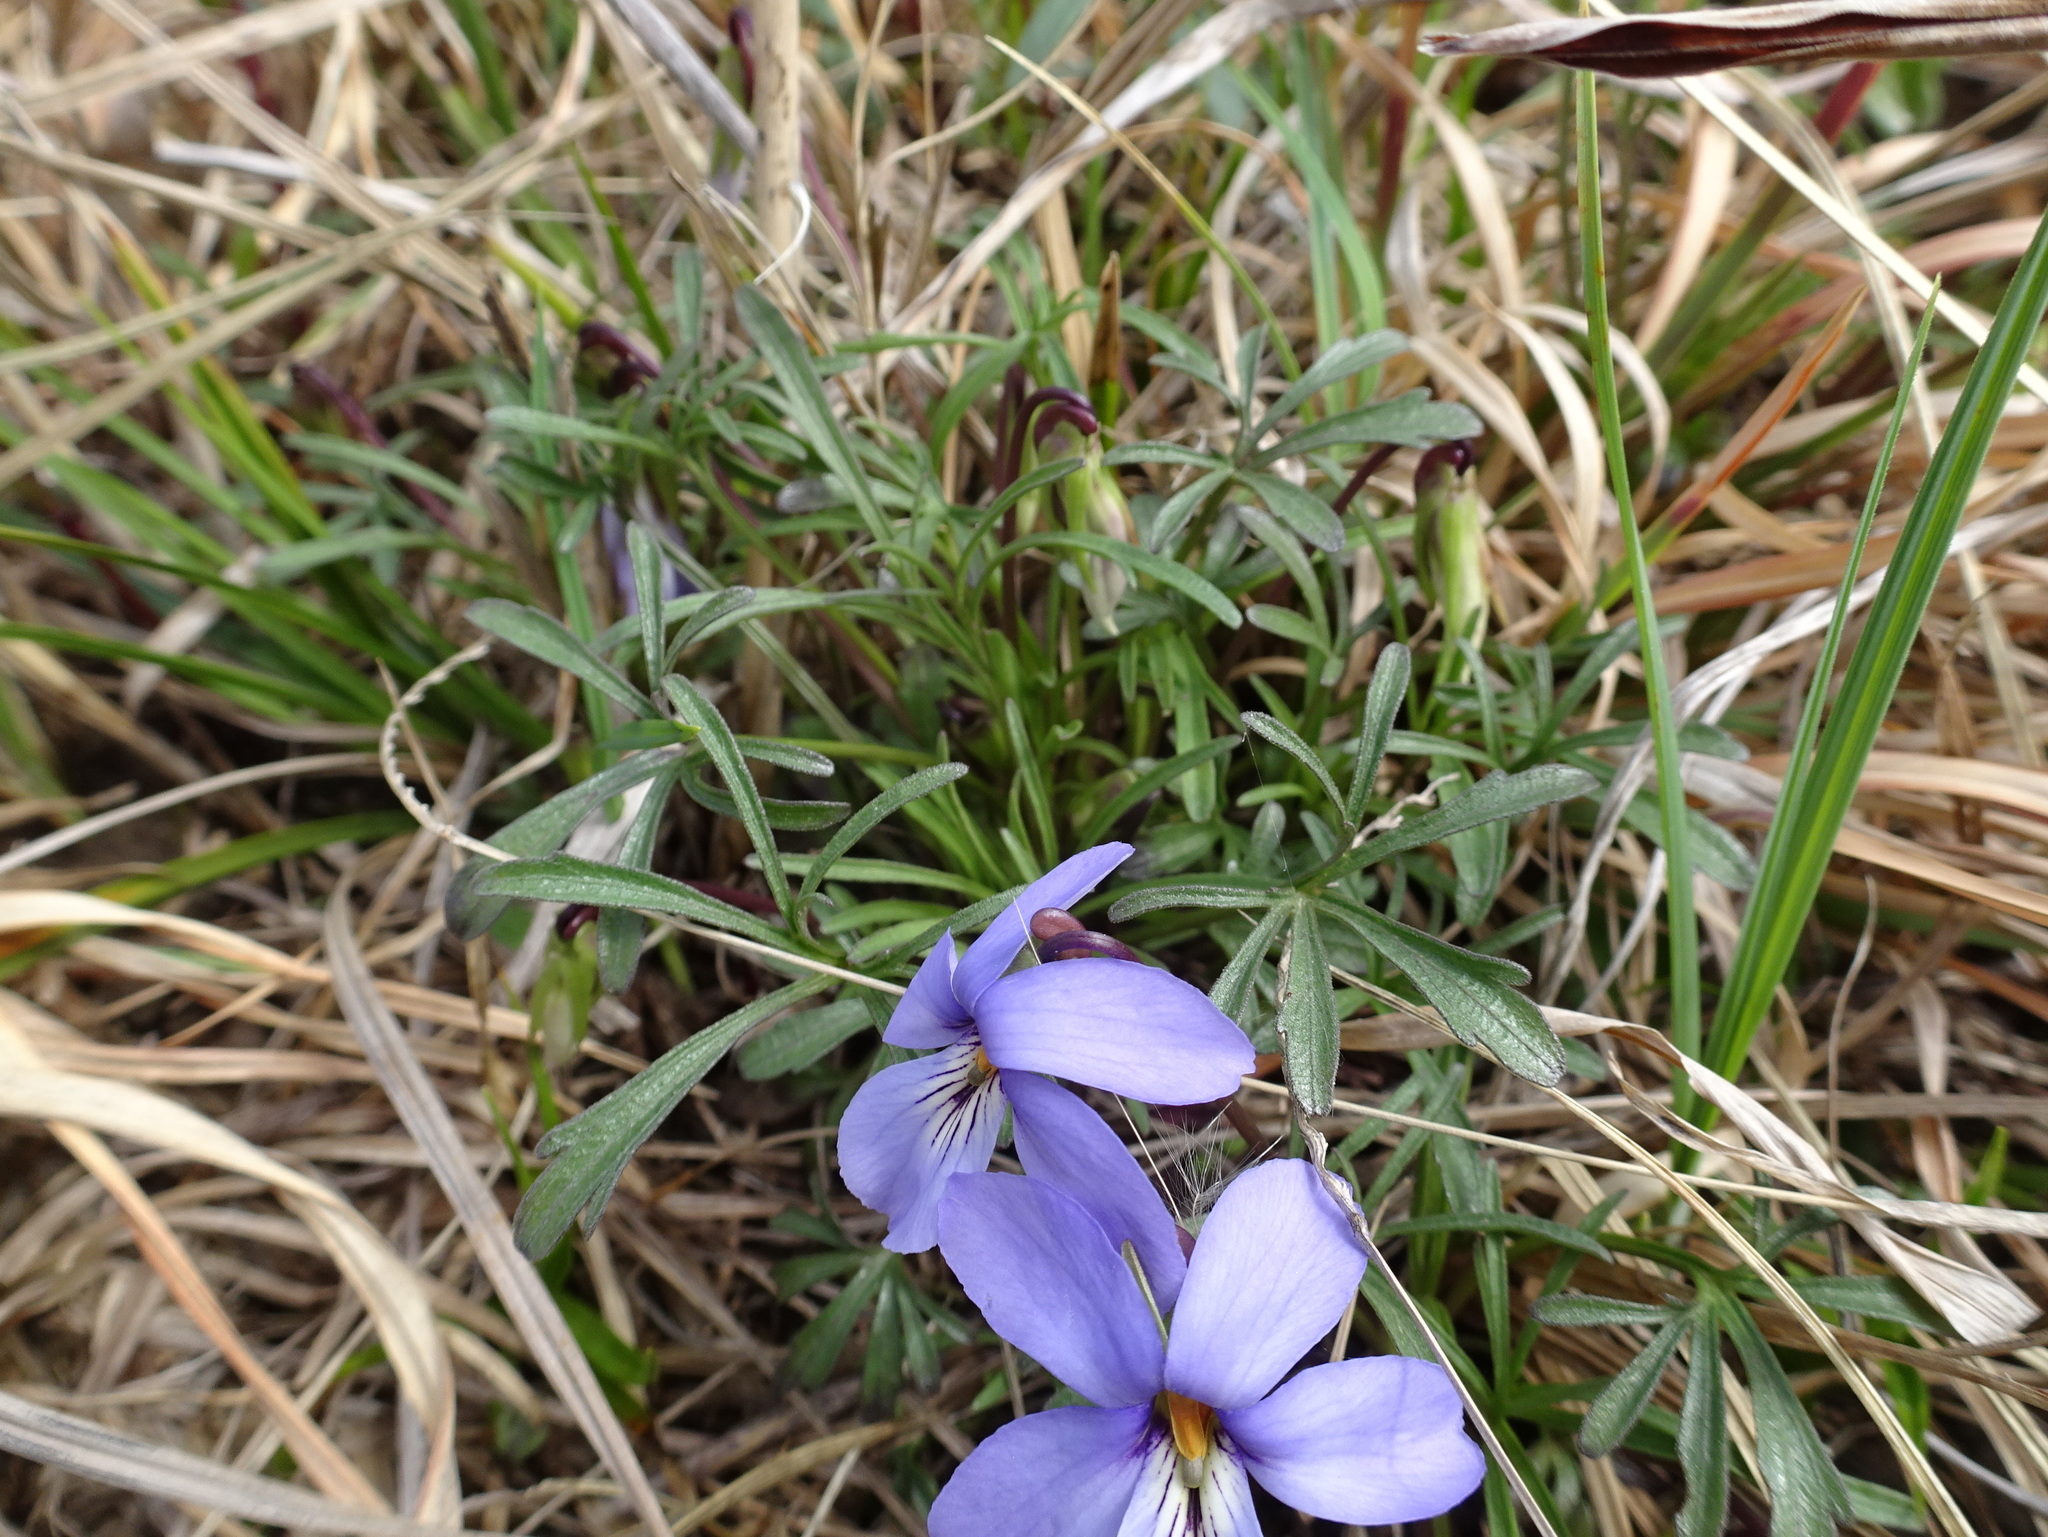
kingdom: Plantae
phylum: Tracheophyta
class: Magnoliopsida
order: Malpighiales
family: Violaceae
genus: Viola
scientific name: Viola pedata
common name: Pansy violet
